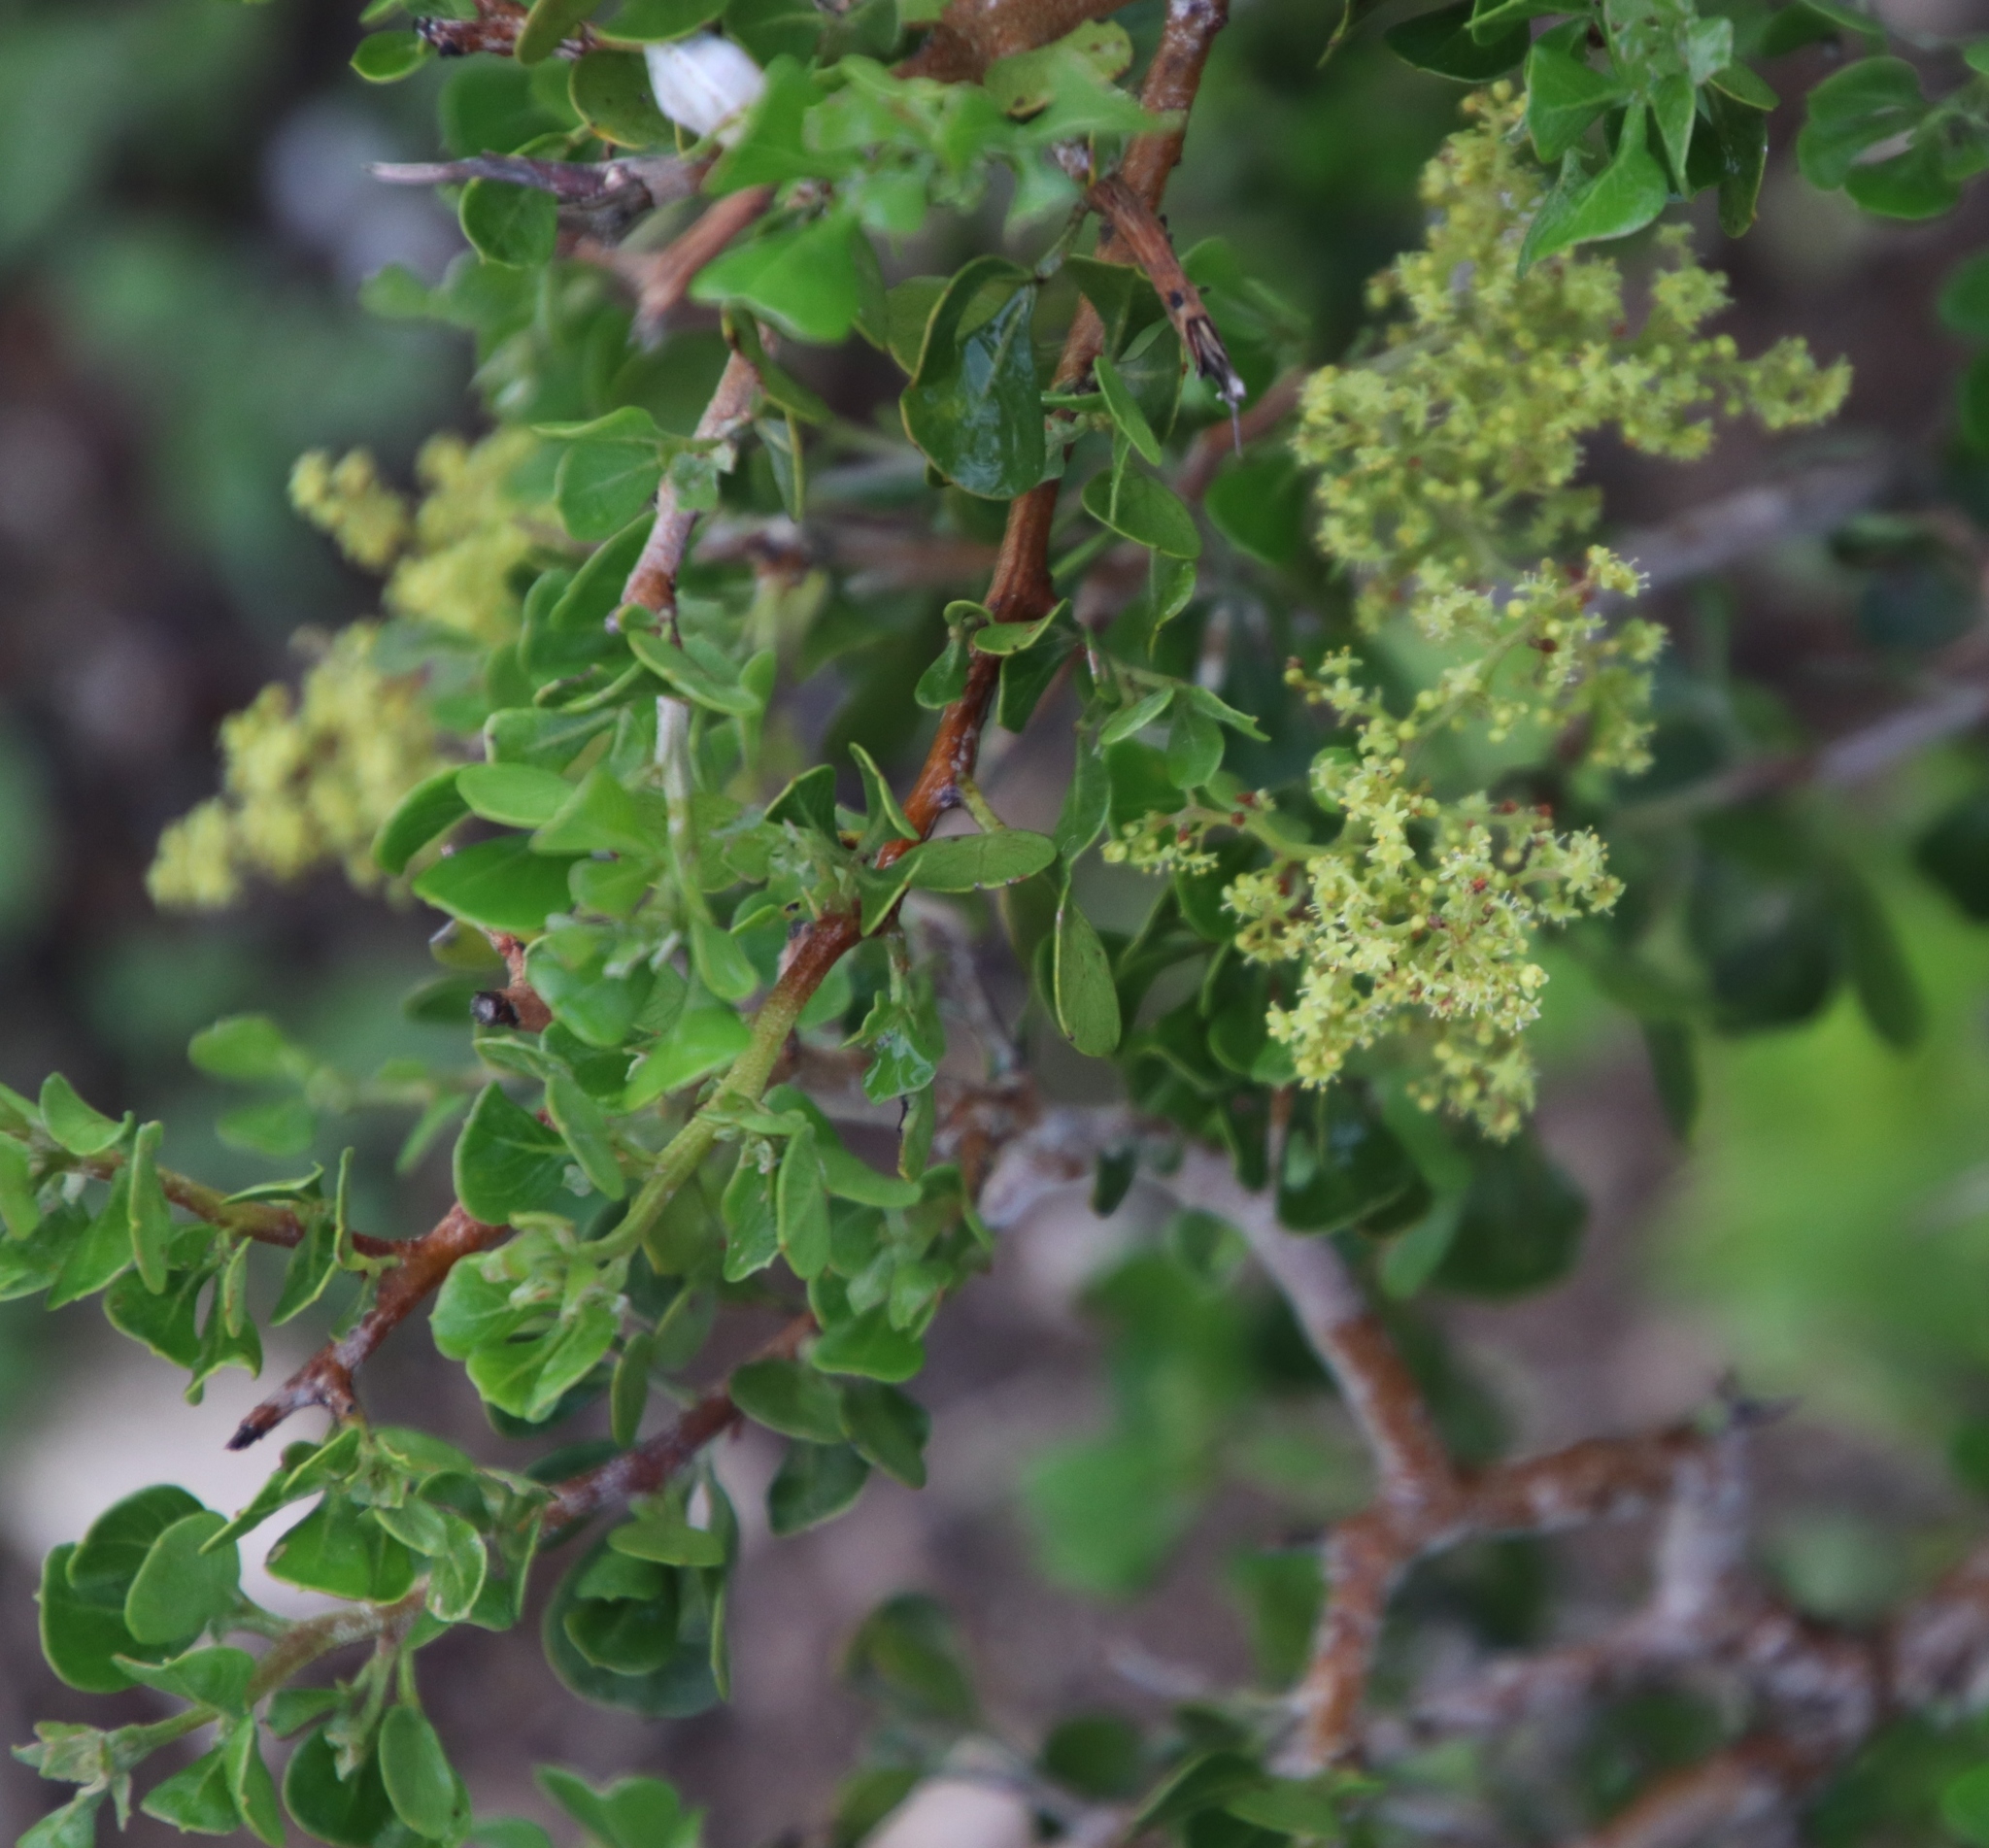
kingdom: Plantae
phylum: Tracheophyta
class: Magnoliopsida
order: Sapindales
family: Anacardiaceae
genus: Searsia
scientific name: Searsia glauca
